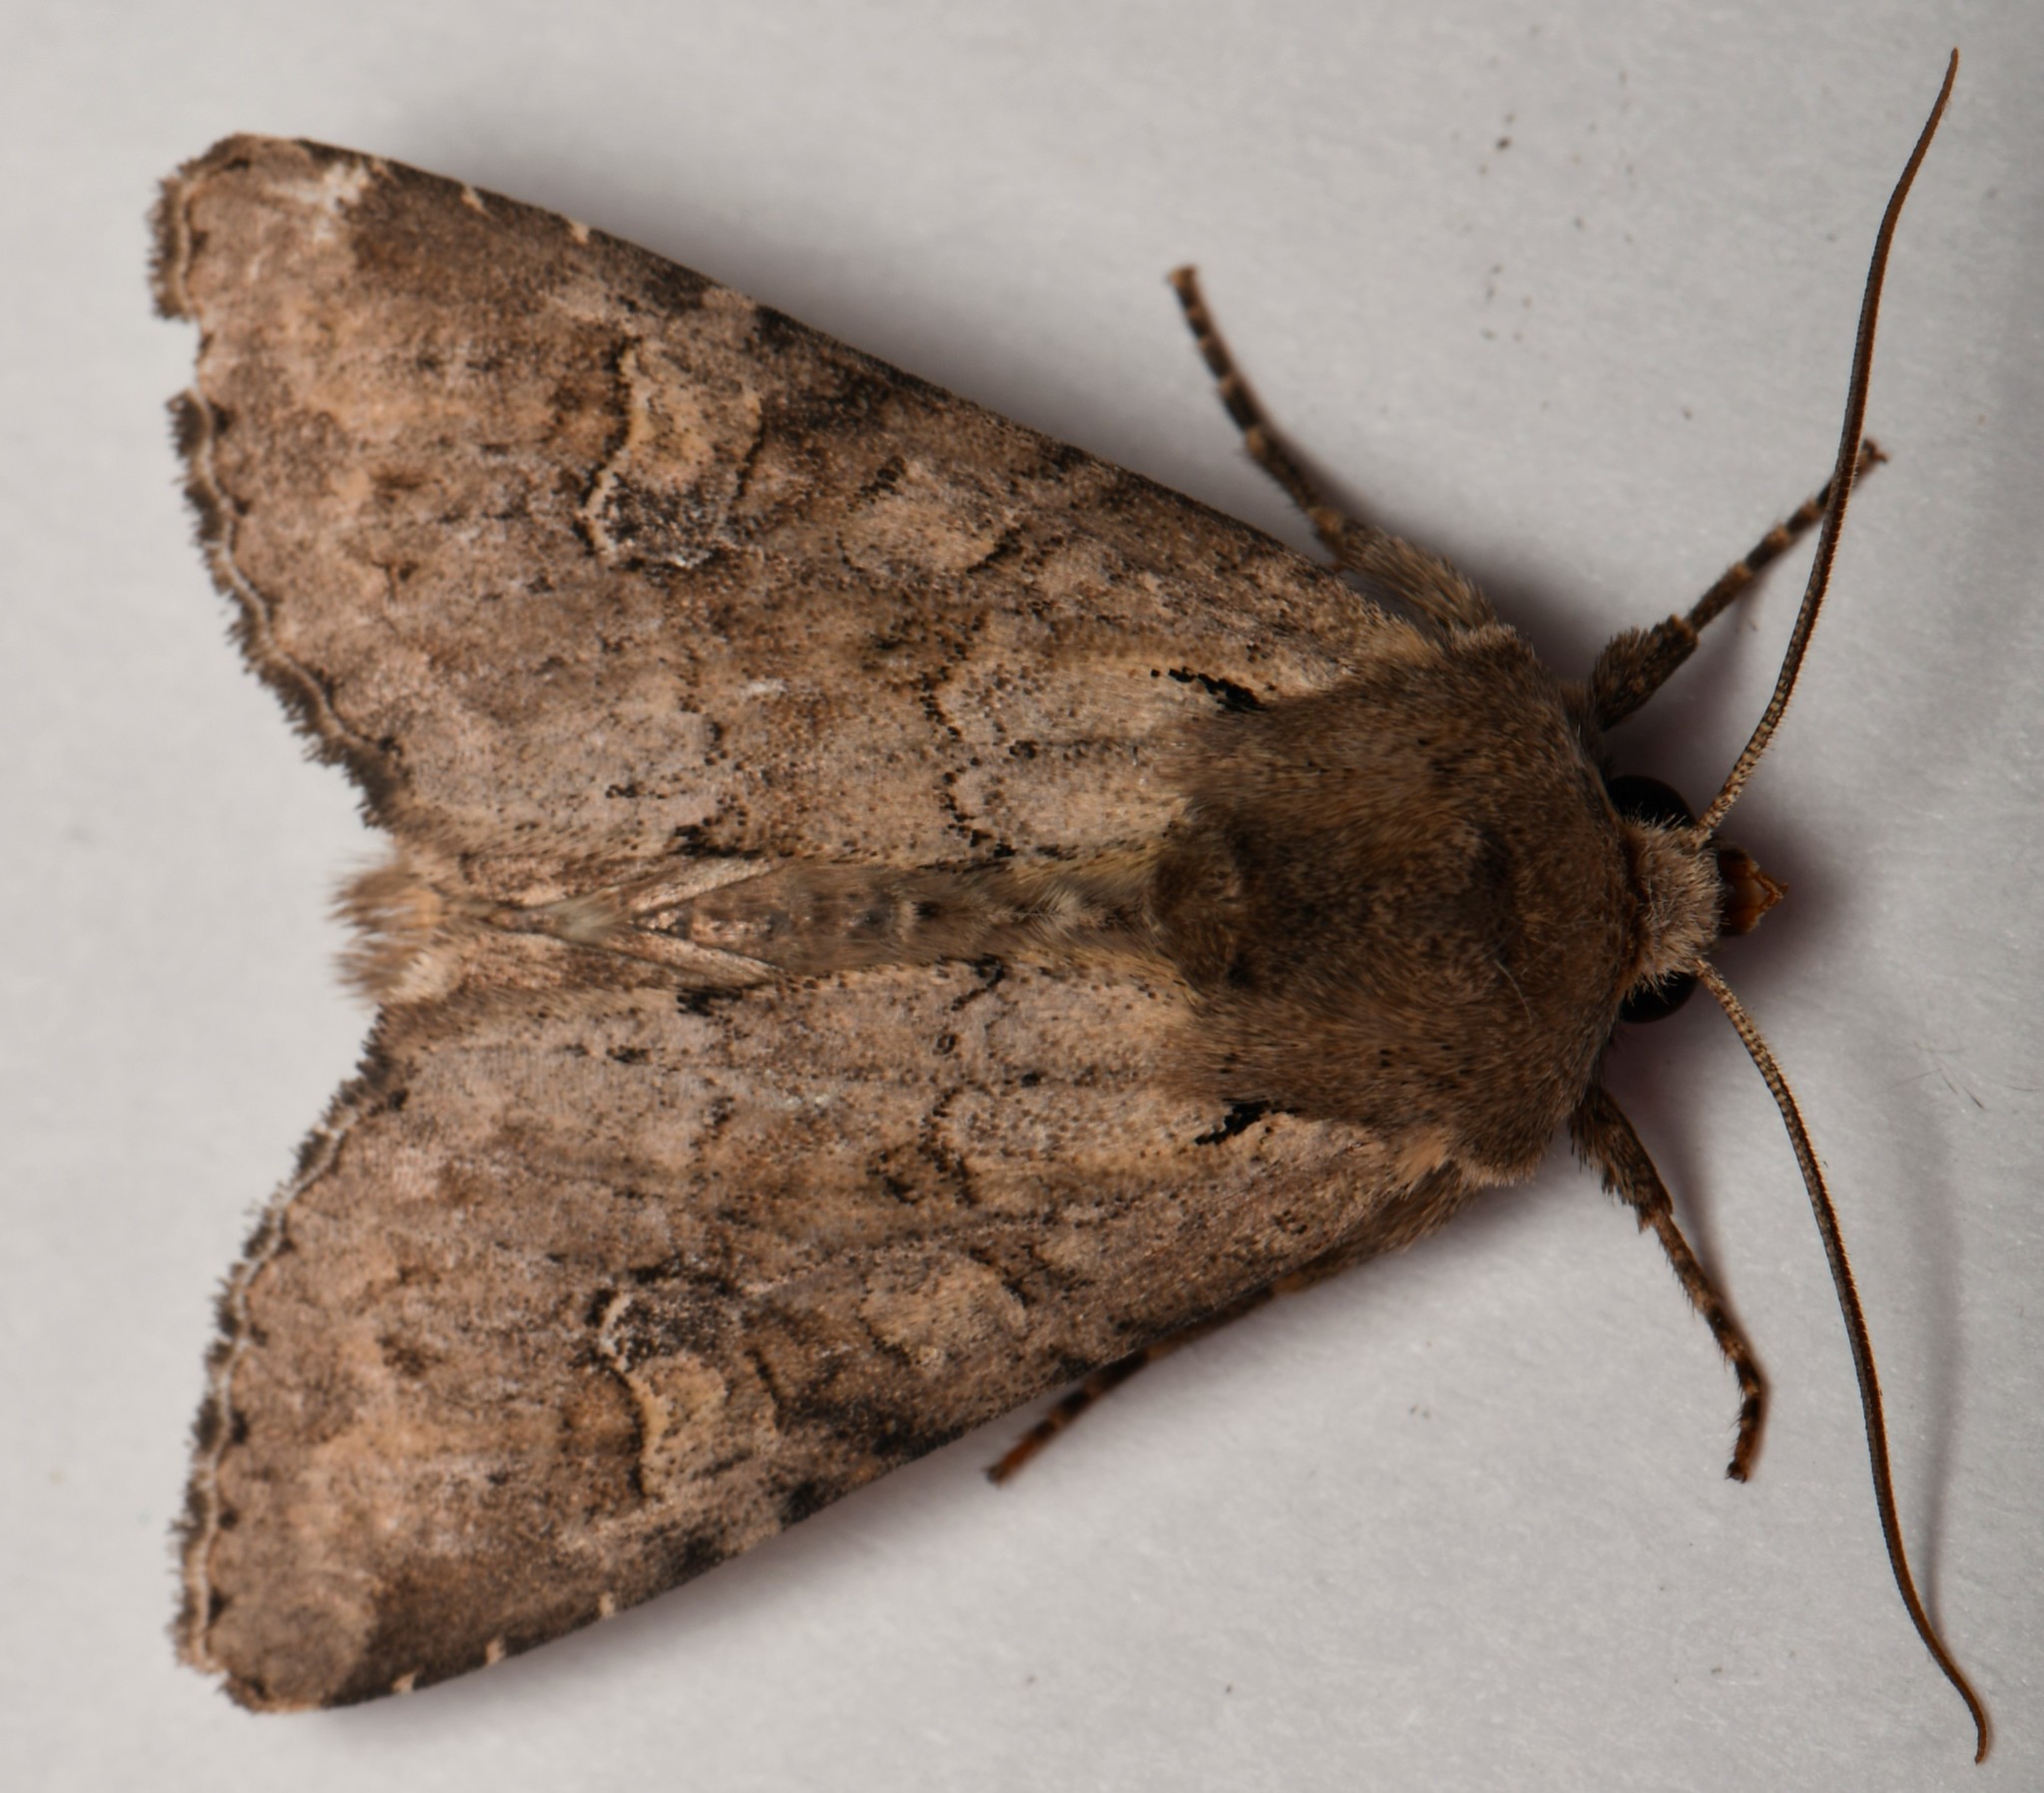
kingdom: Animalia
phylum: Arthropoda
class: Insecta
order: Lepidoptera
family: Noctuidae
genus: Apamea
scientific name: Apamea sordens
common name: Rustic shoulder-knot
